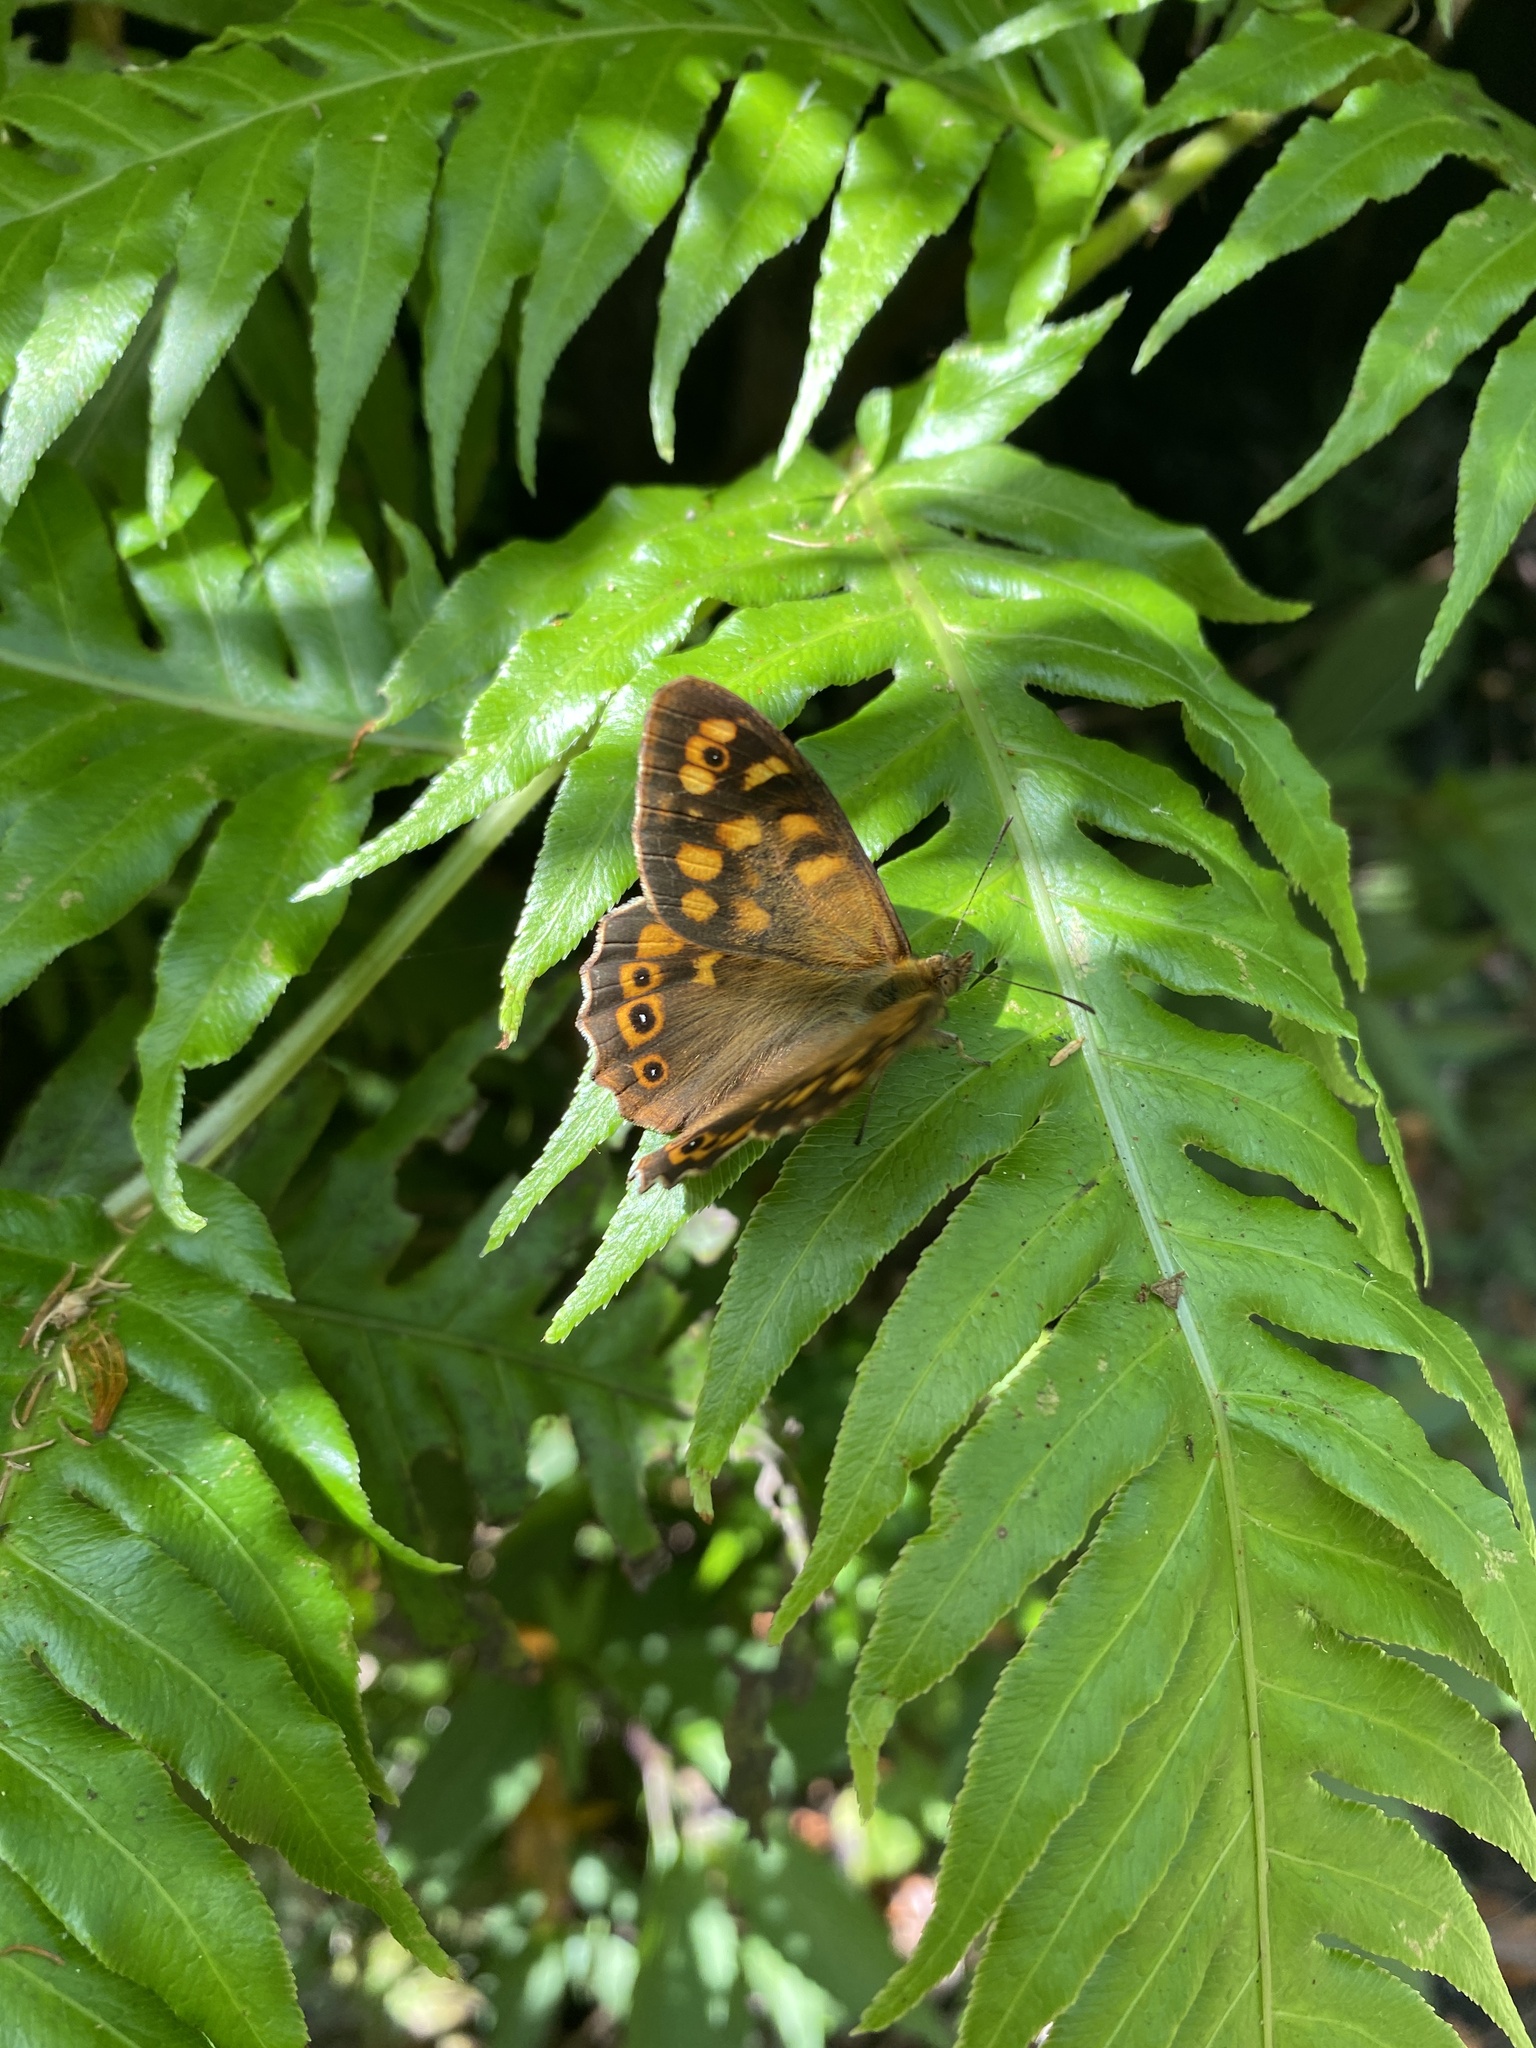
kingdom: Animalia
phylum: Arthropoda
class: Insecta
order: Lepidoptera
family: Nymphalidae
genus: Pararge
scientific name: Pararge aegeria
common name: Speckled wood
